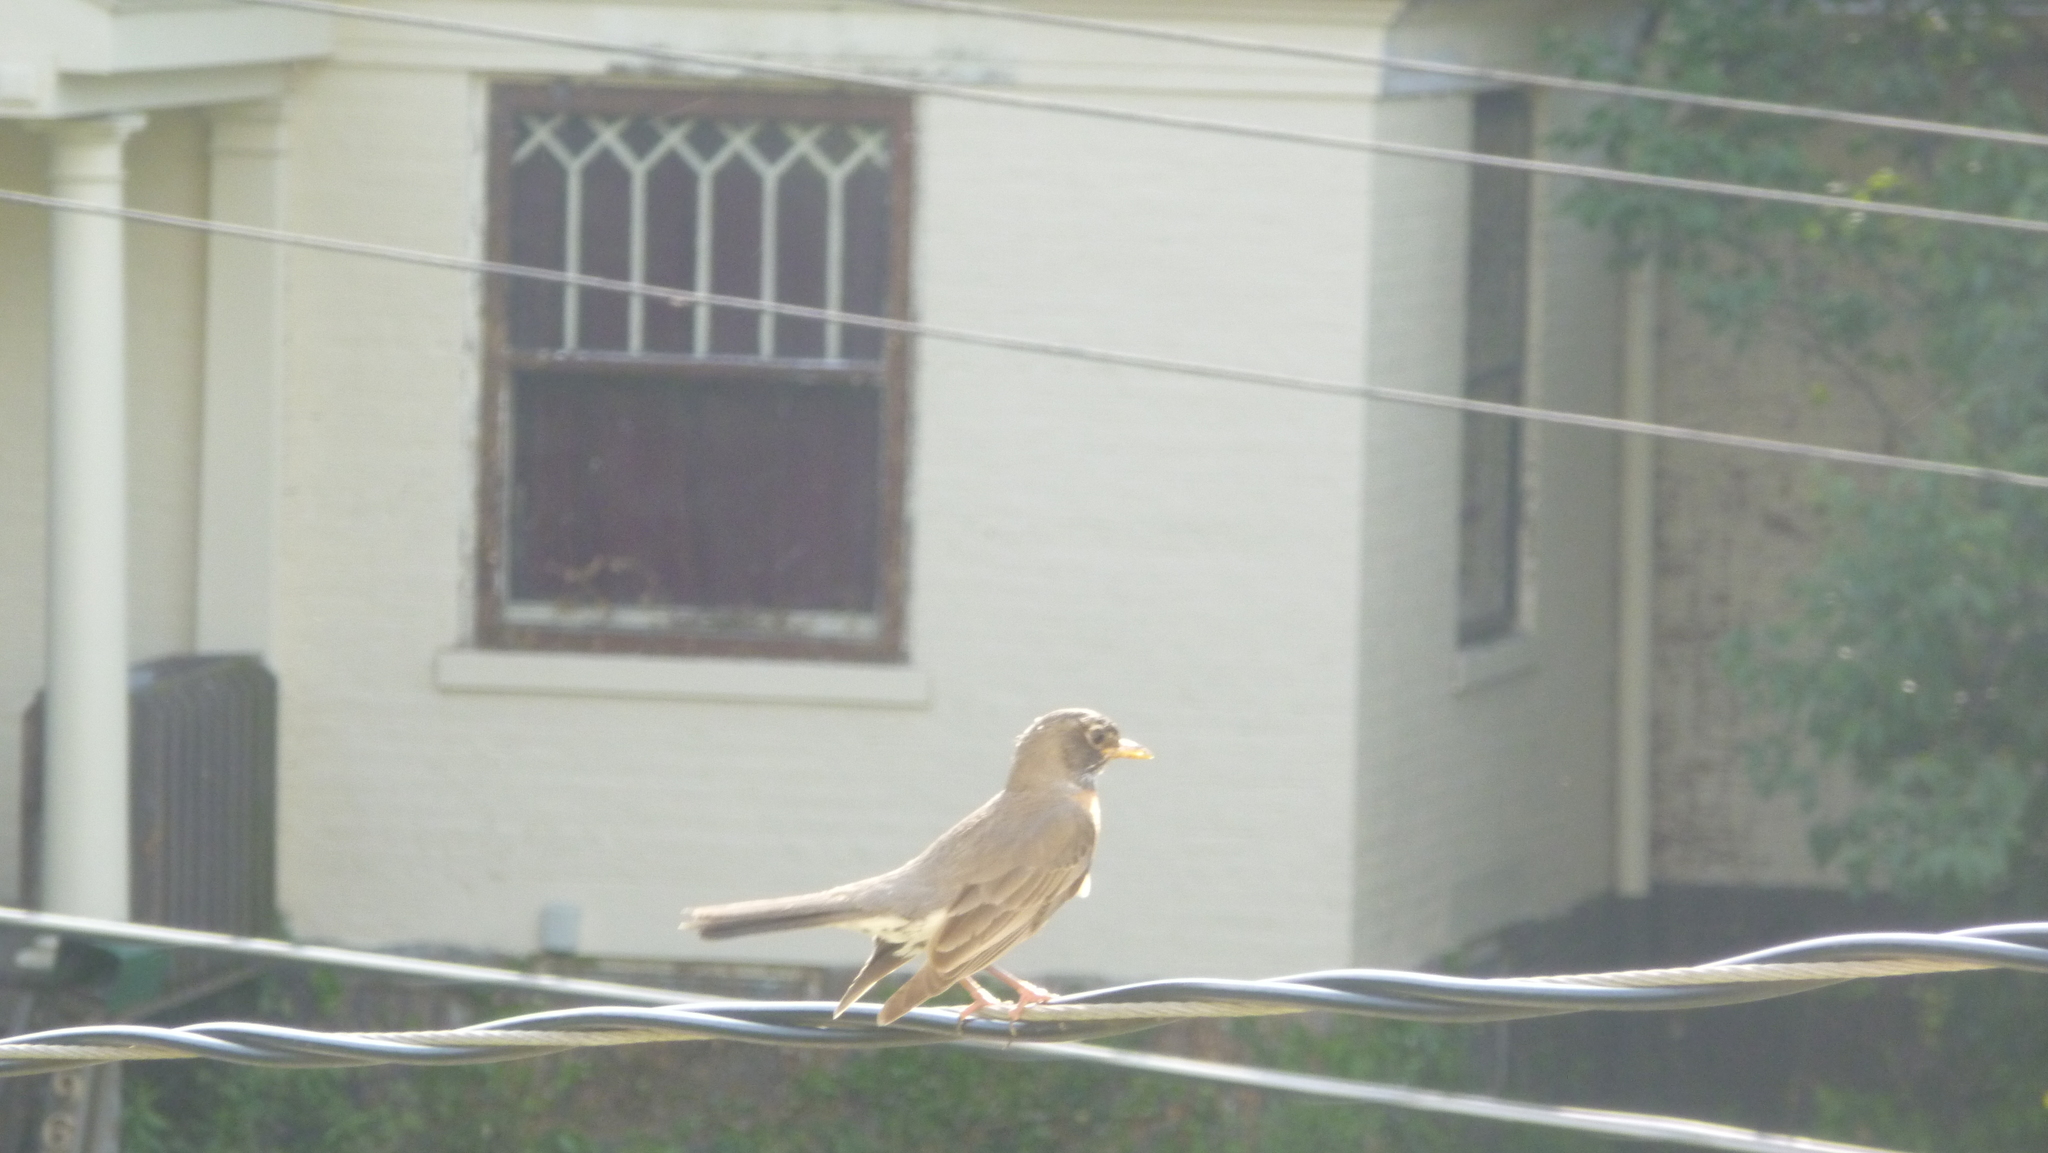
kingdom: Animalia
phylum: Chordata
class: Aves
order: Passeriformes
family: Turdidae
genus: Turdus
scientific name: Turdus migratorius
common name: American robin
